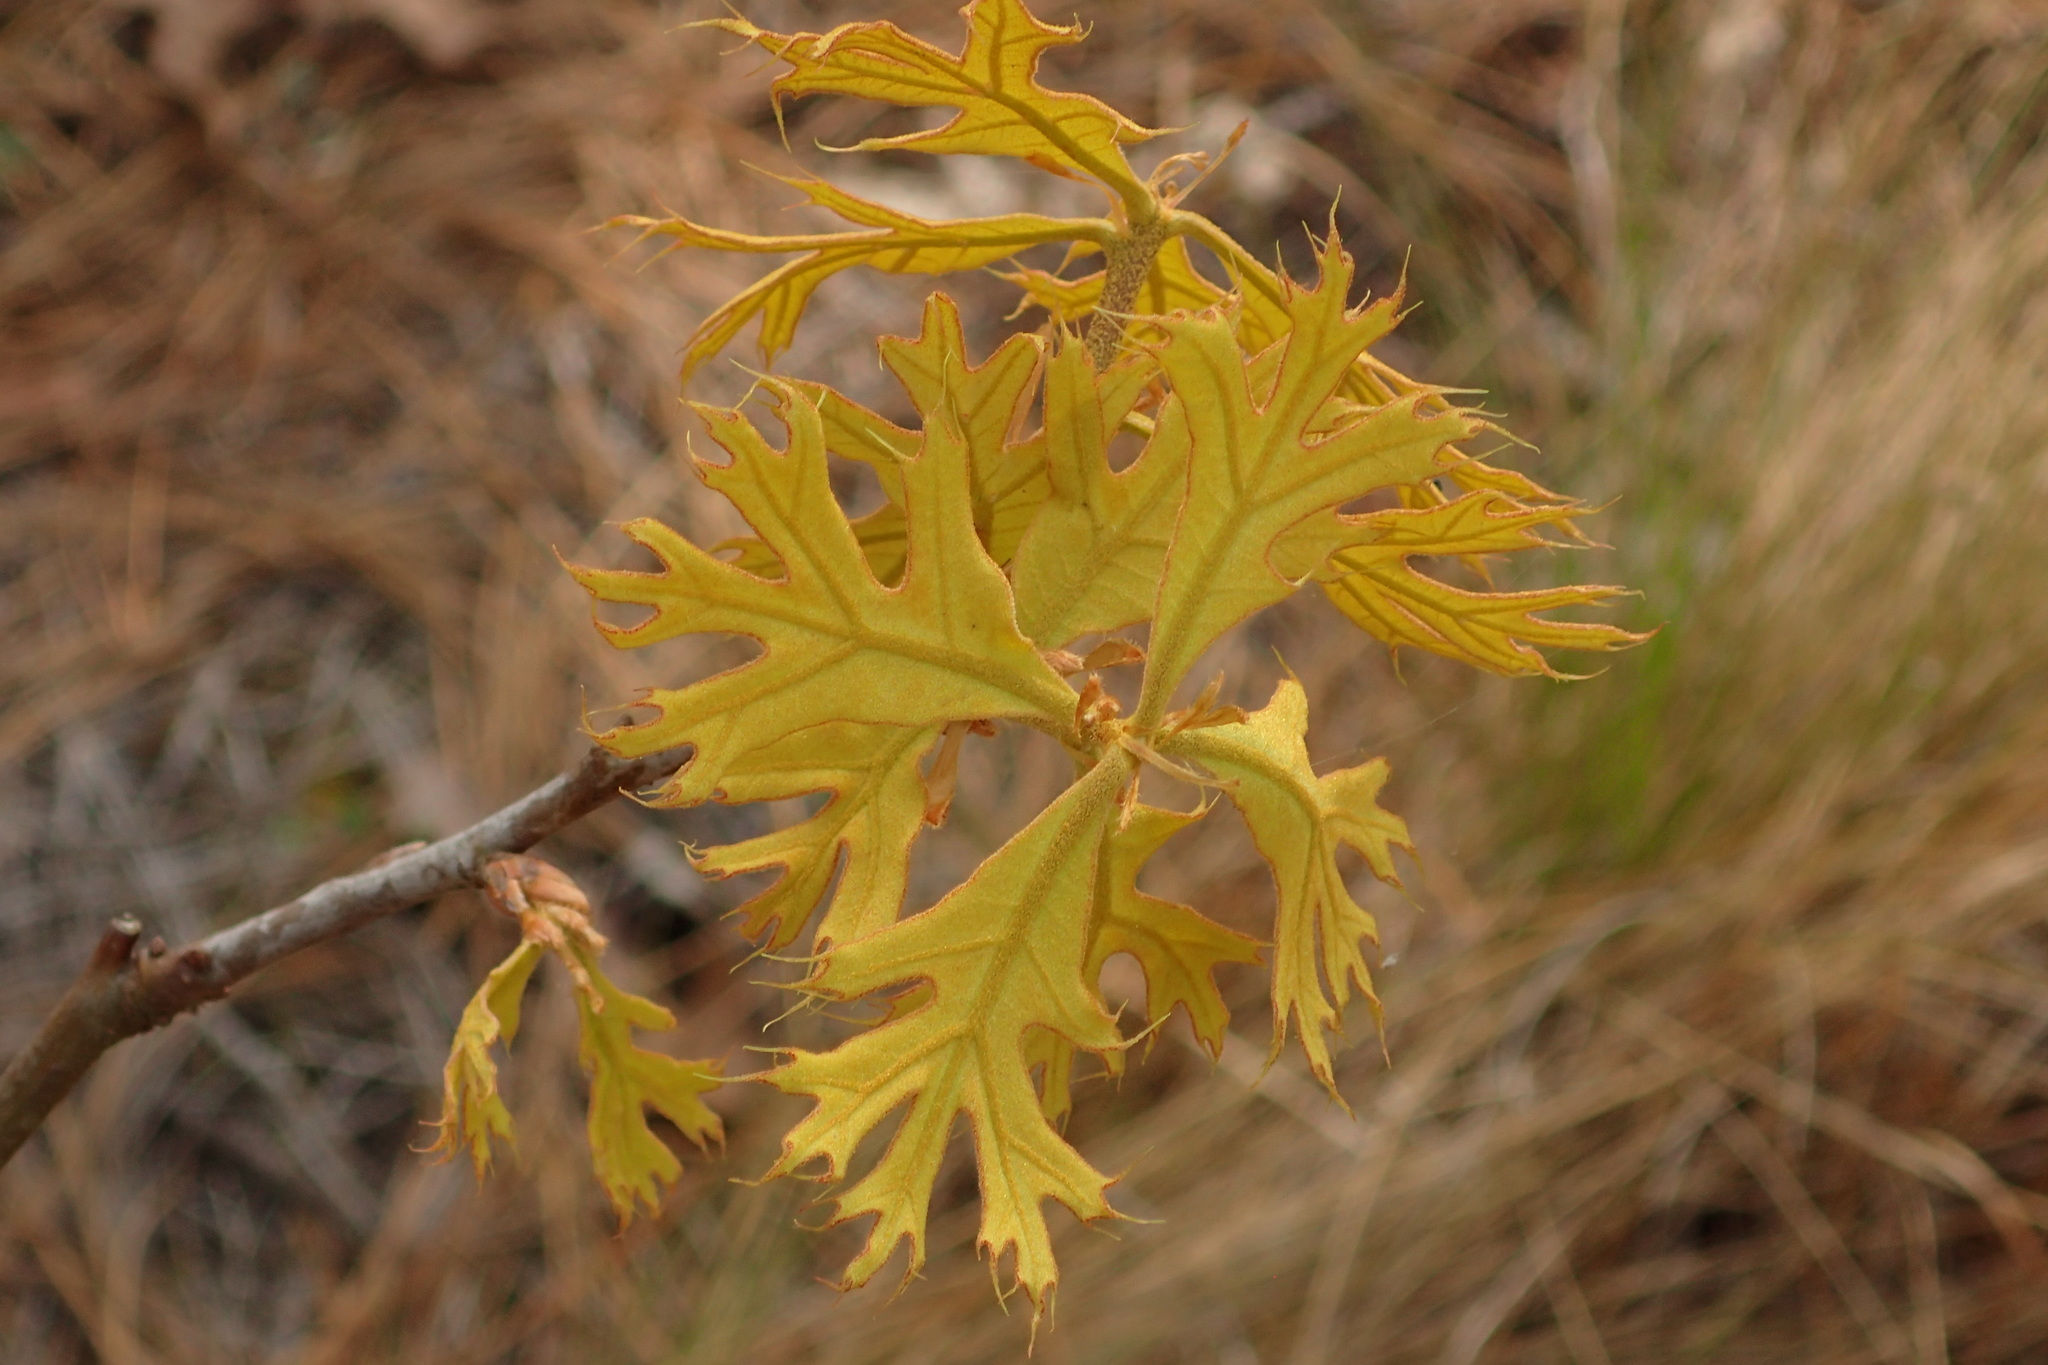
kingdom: Plantae
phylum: Tracheophyta
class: Magnoliopsida
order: Fagales
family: Fagaceae
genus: Quercus
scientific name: Quercus laevis
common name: Turkey oak
